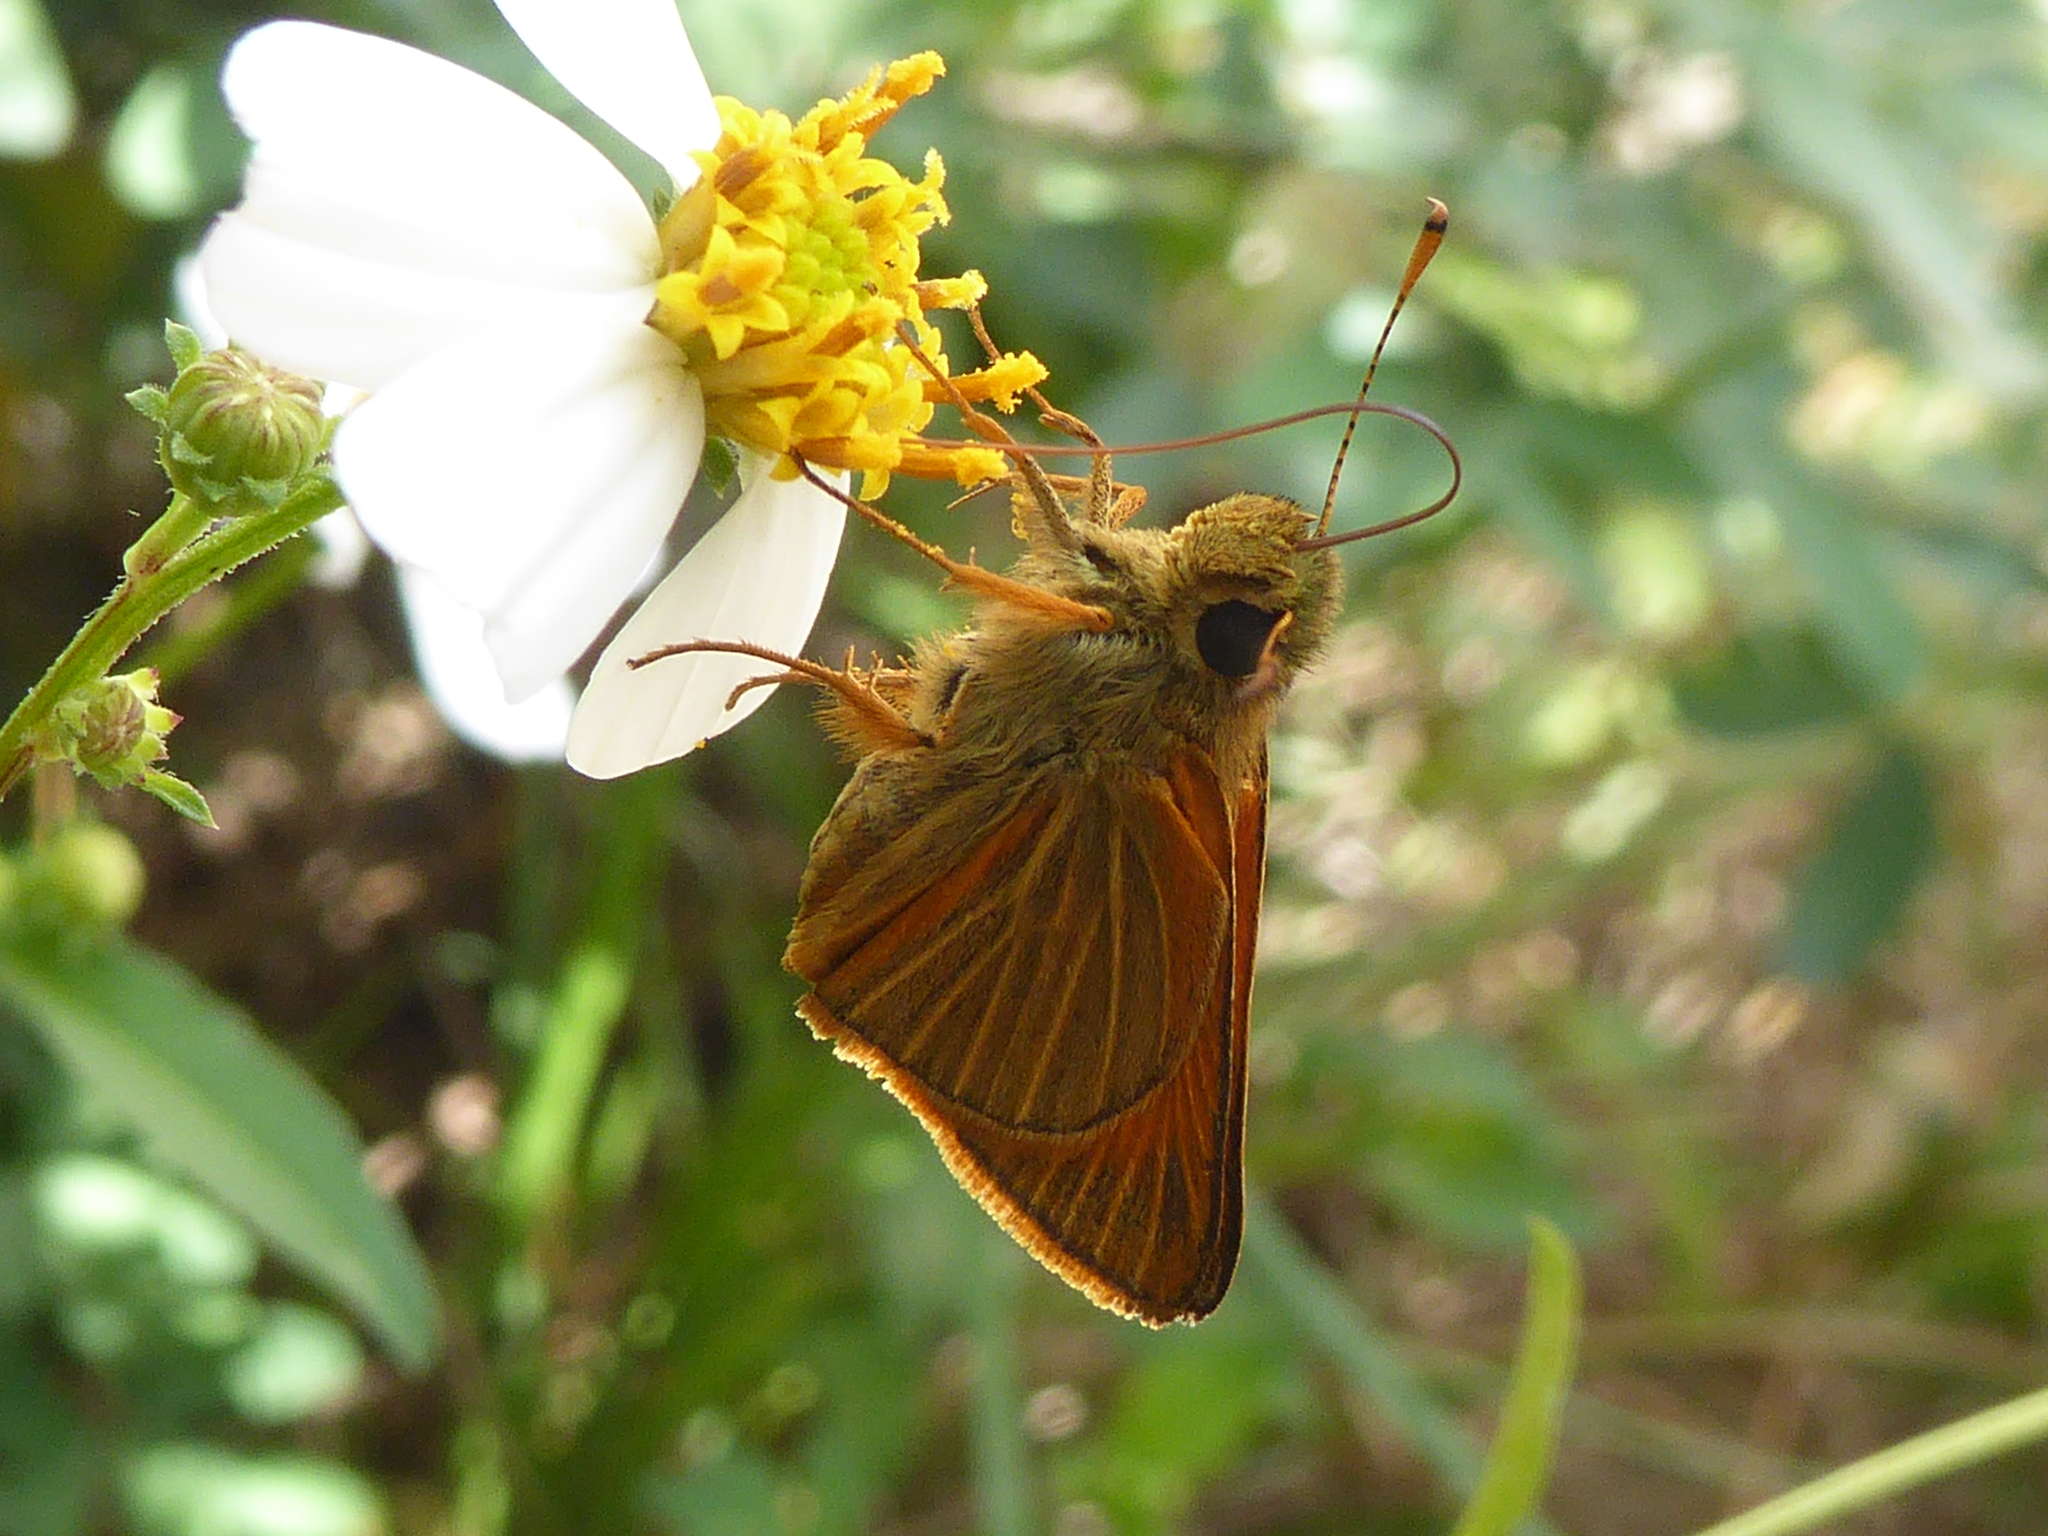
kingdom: Animalia
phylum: Arthropoda
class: Insecta
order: Lepidoptera
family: Hesperiidae
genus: Choranthus
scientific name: Choranthus radians
